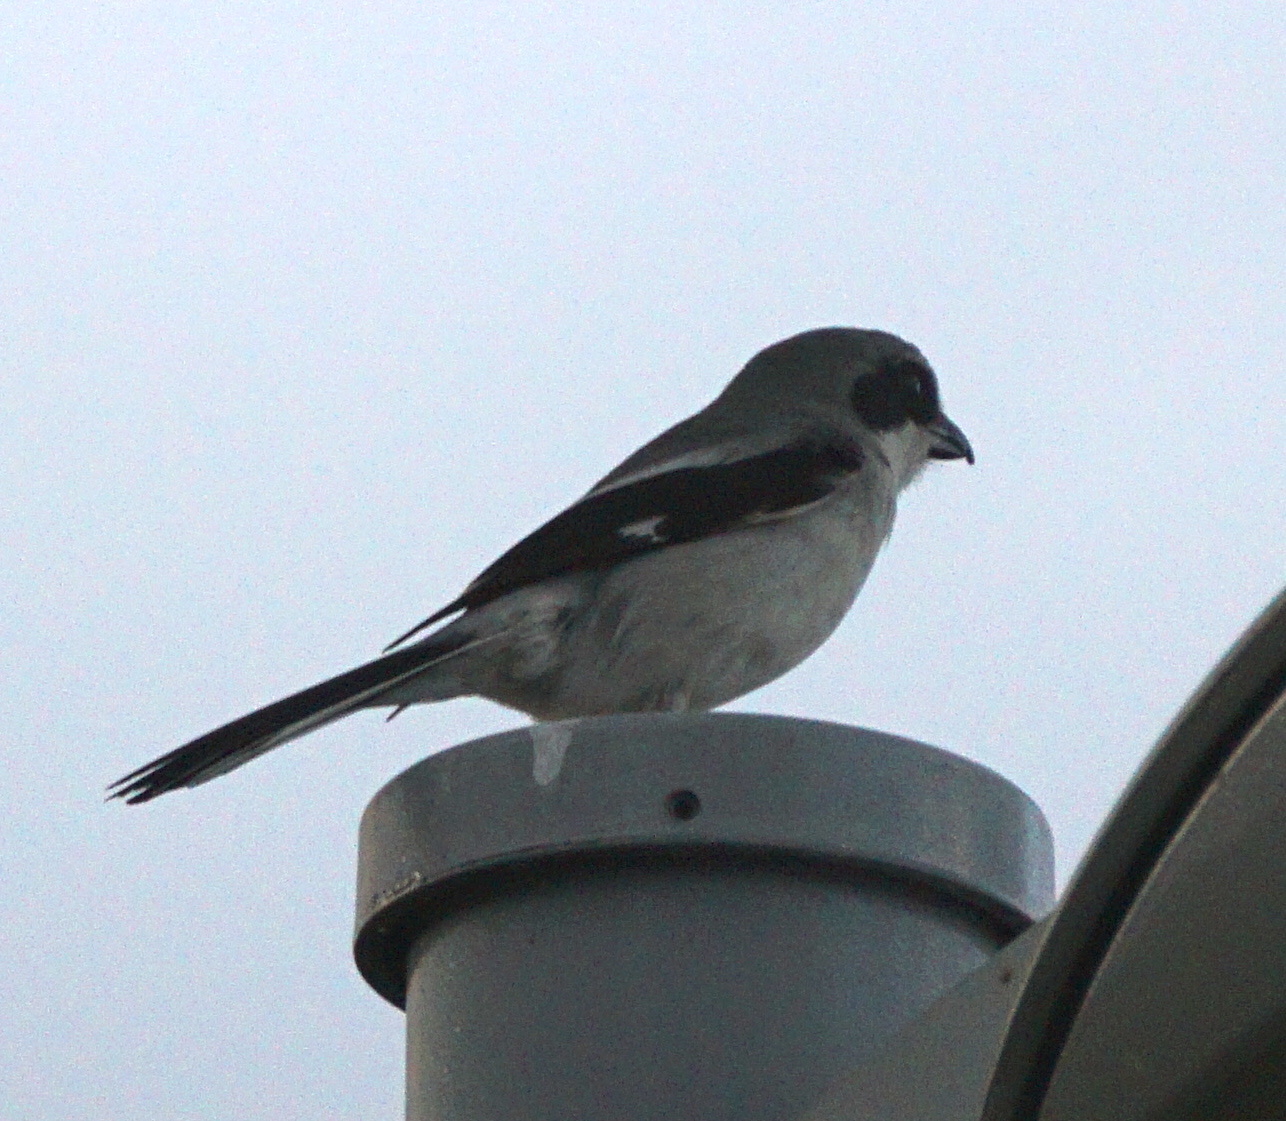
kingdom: Animalia
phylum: Chordata
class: Aves
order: Passeriformes
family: Laniidae
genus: Lanius
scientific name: Lanius ludovicianus
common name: Loggerhead shrike
